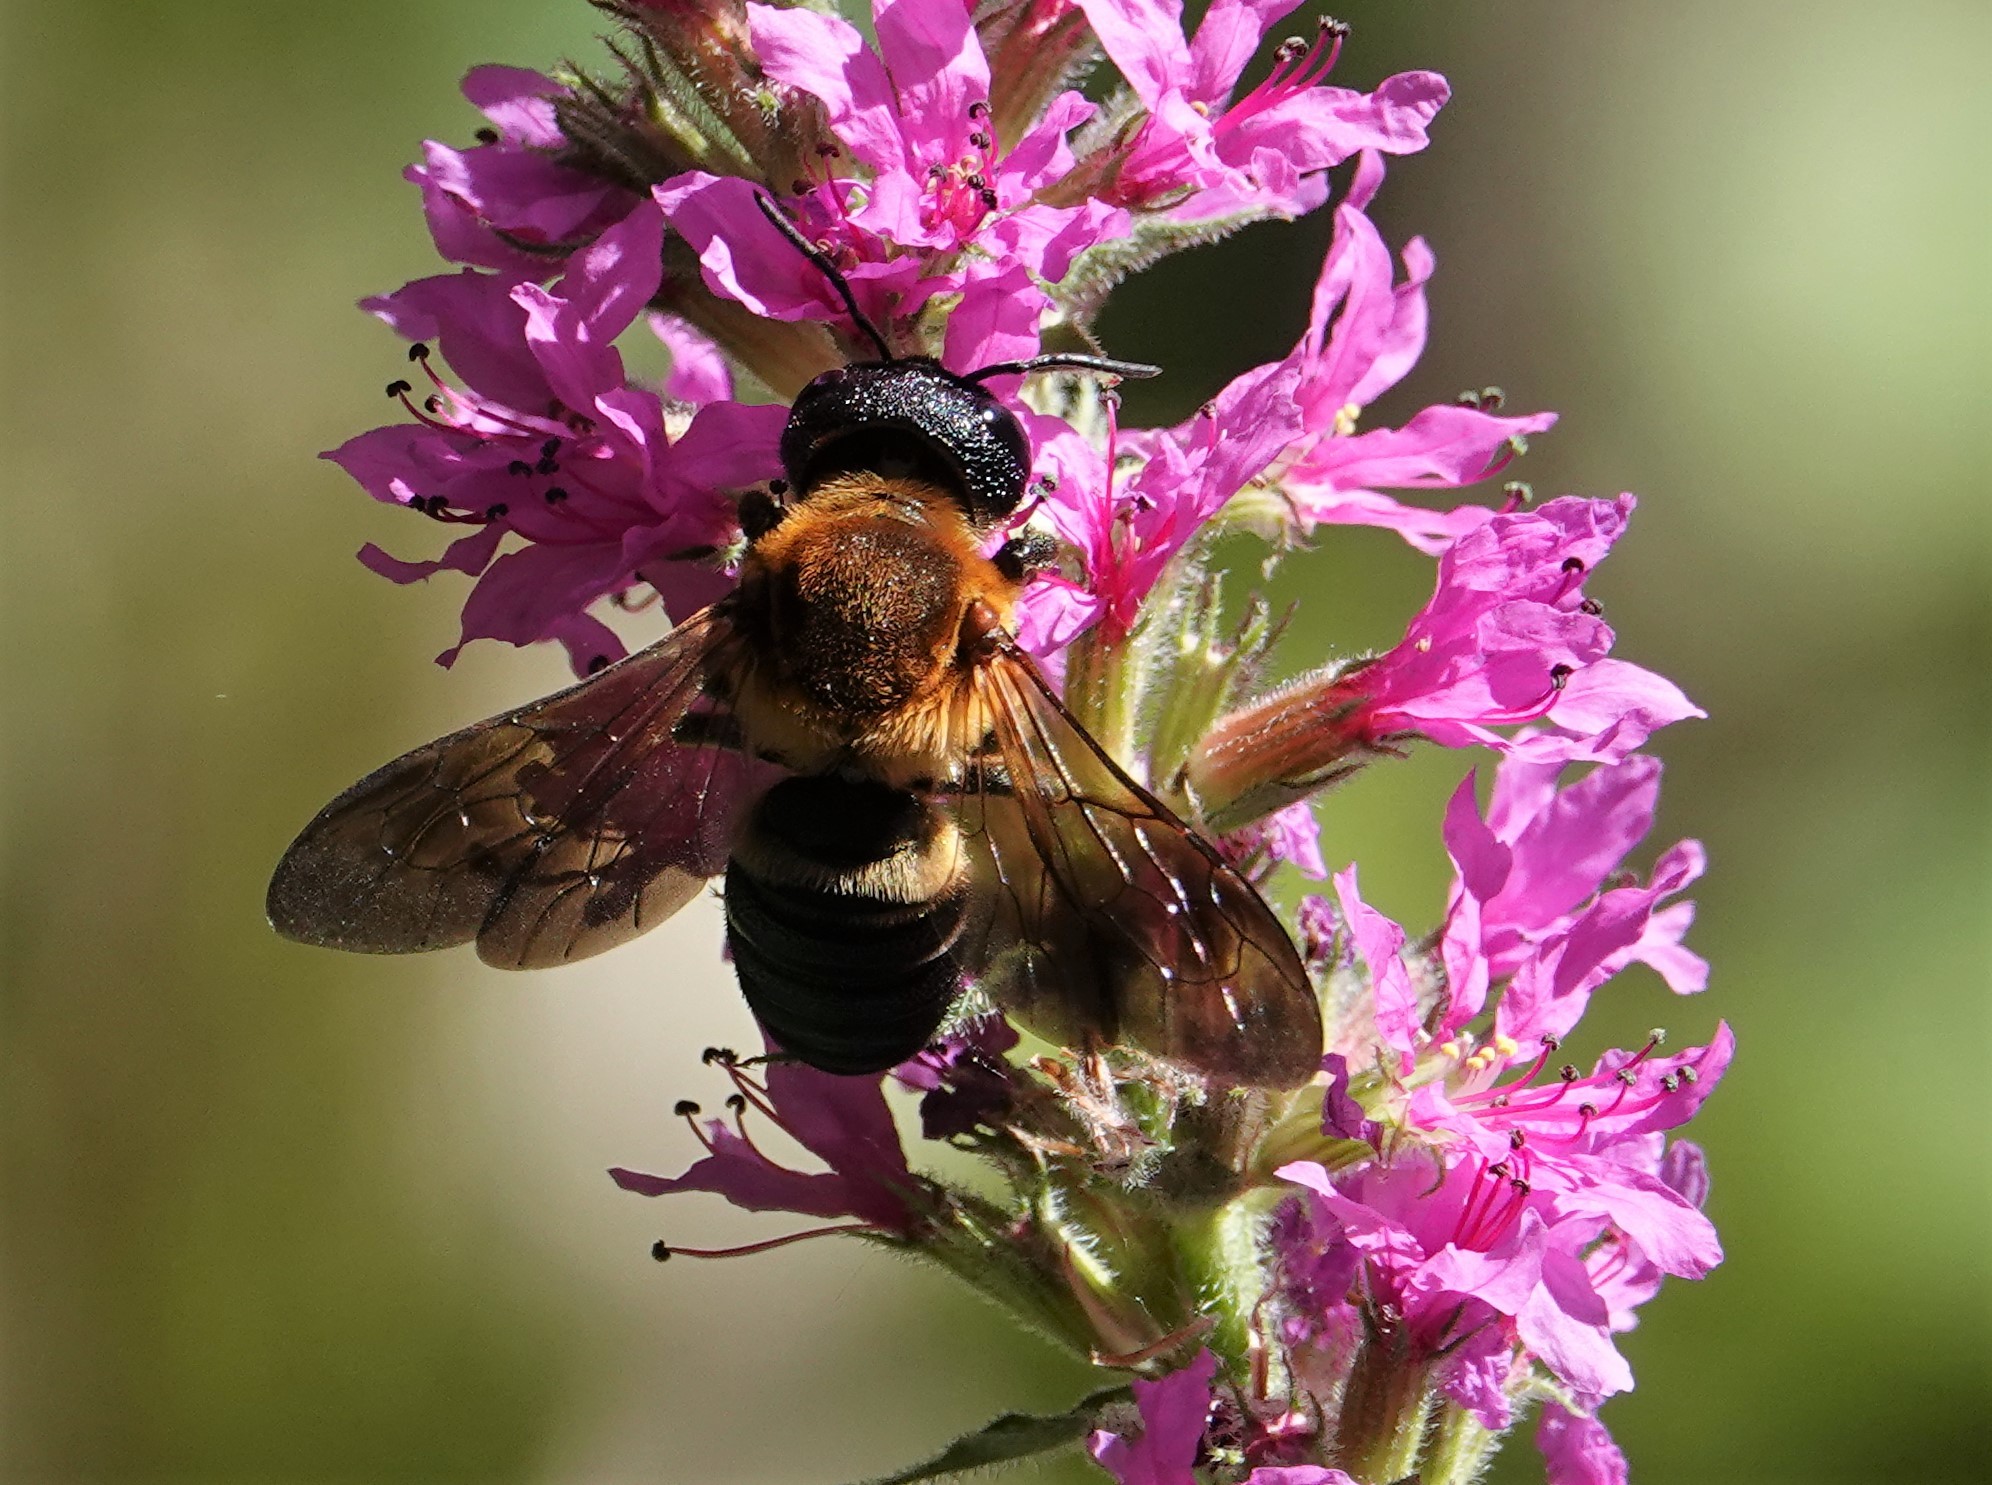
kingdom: Animalia
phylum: Arthropoda
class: Insecta
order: Hymenoptera
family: Megachilidae
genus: Megachile
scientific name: Megachile sculpturalis
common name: Sculptured resin bee
